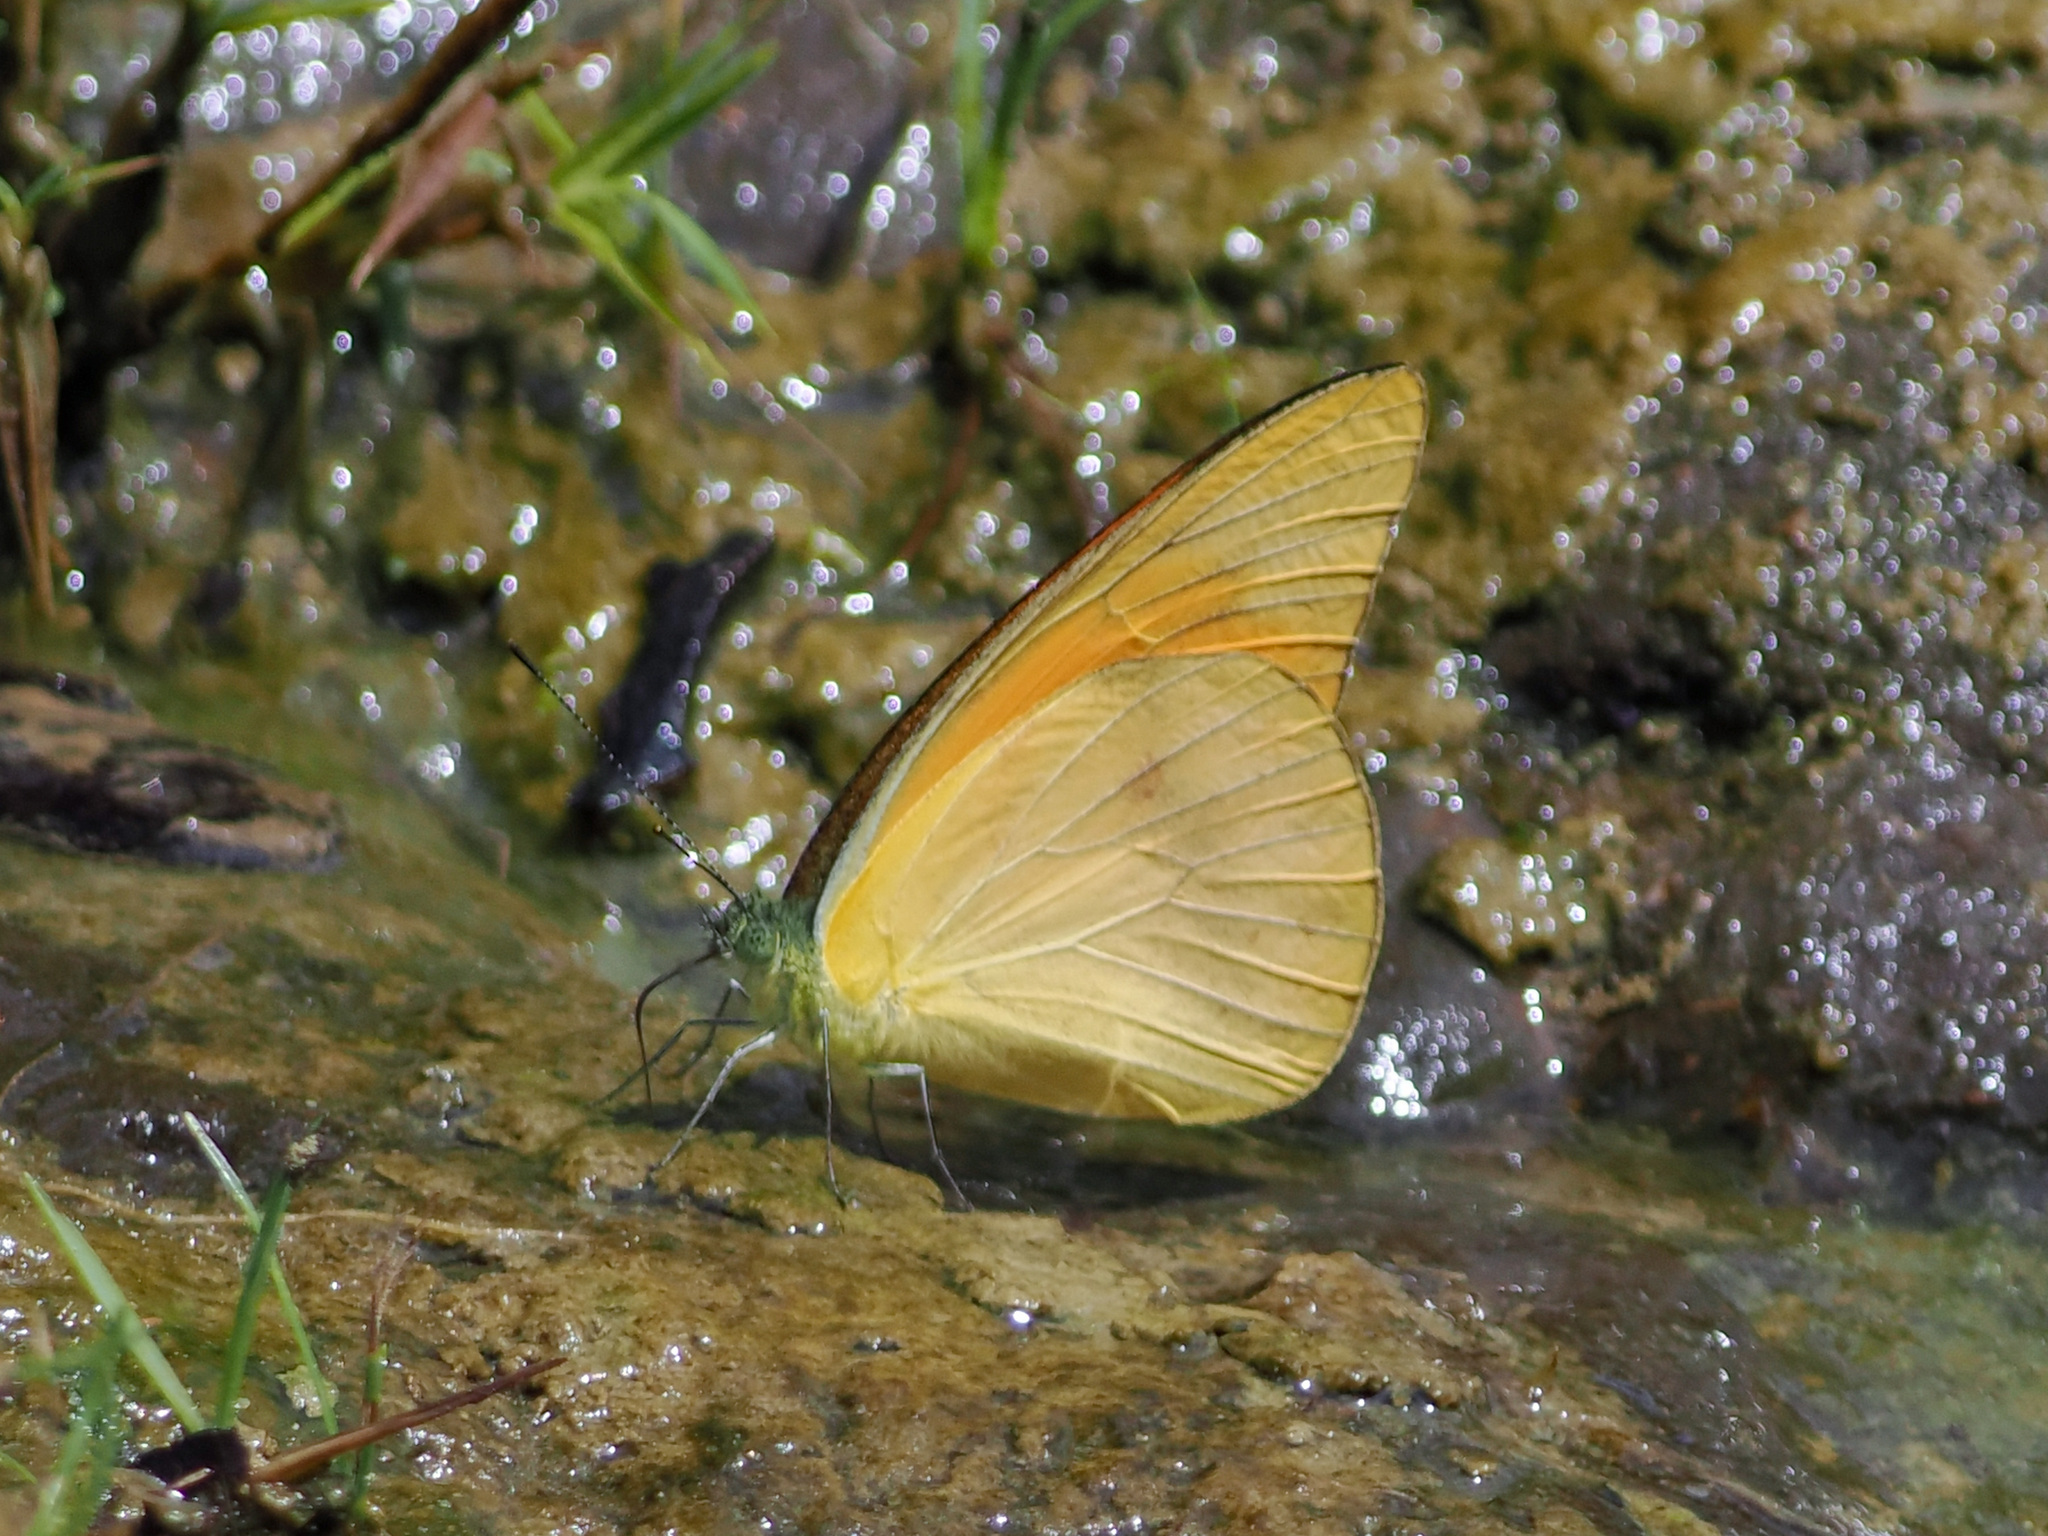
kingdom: Animalia
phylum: Arthropoda
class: Insecta
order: Lepidoptera
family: Pieridae
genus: Appias
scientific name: Appias nero
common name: Orange albatross
